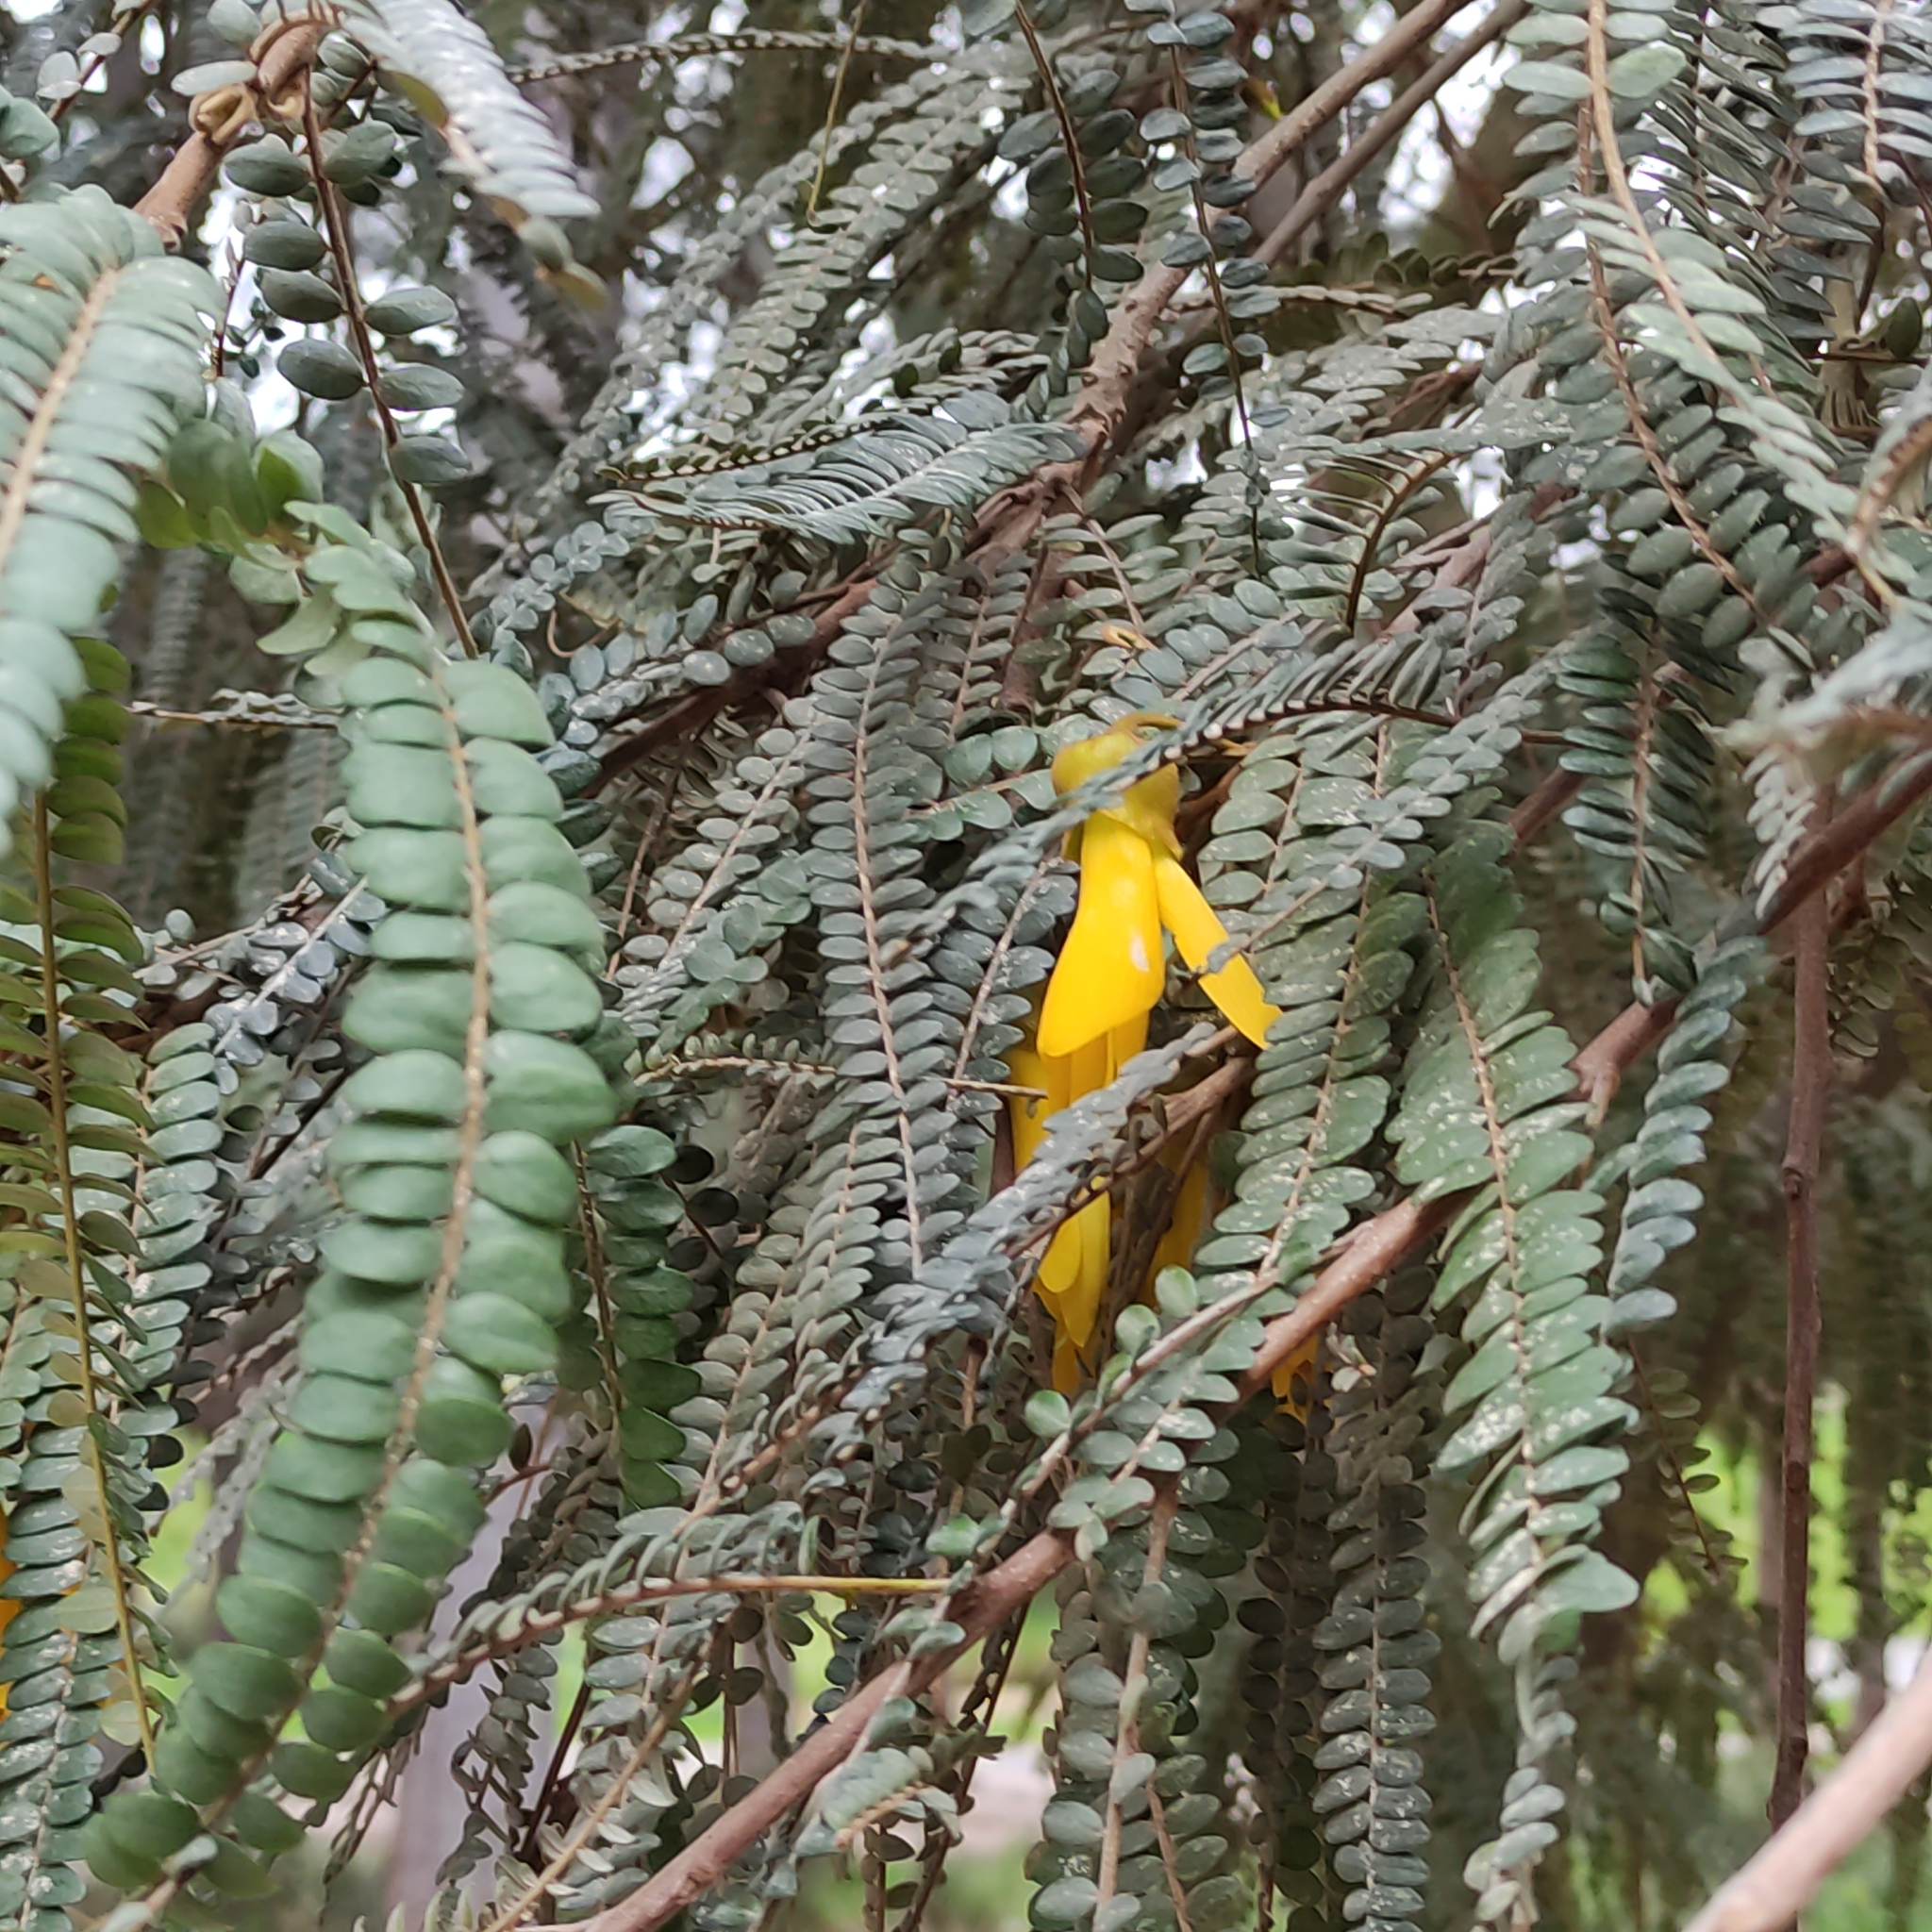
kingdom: Plantae
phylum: Tracheophyta
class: Magnoliopsida
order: Fabales
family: Fabaceae
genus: Sophora
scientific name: Sophora microphylla
